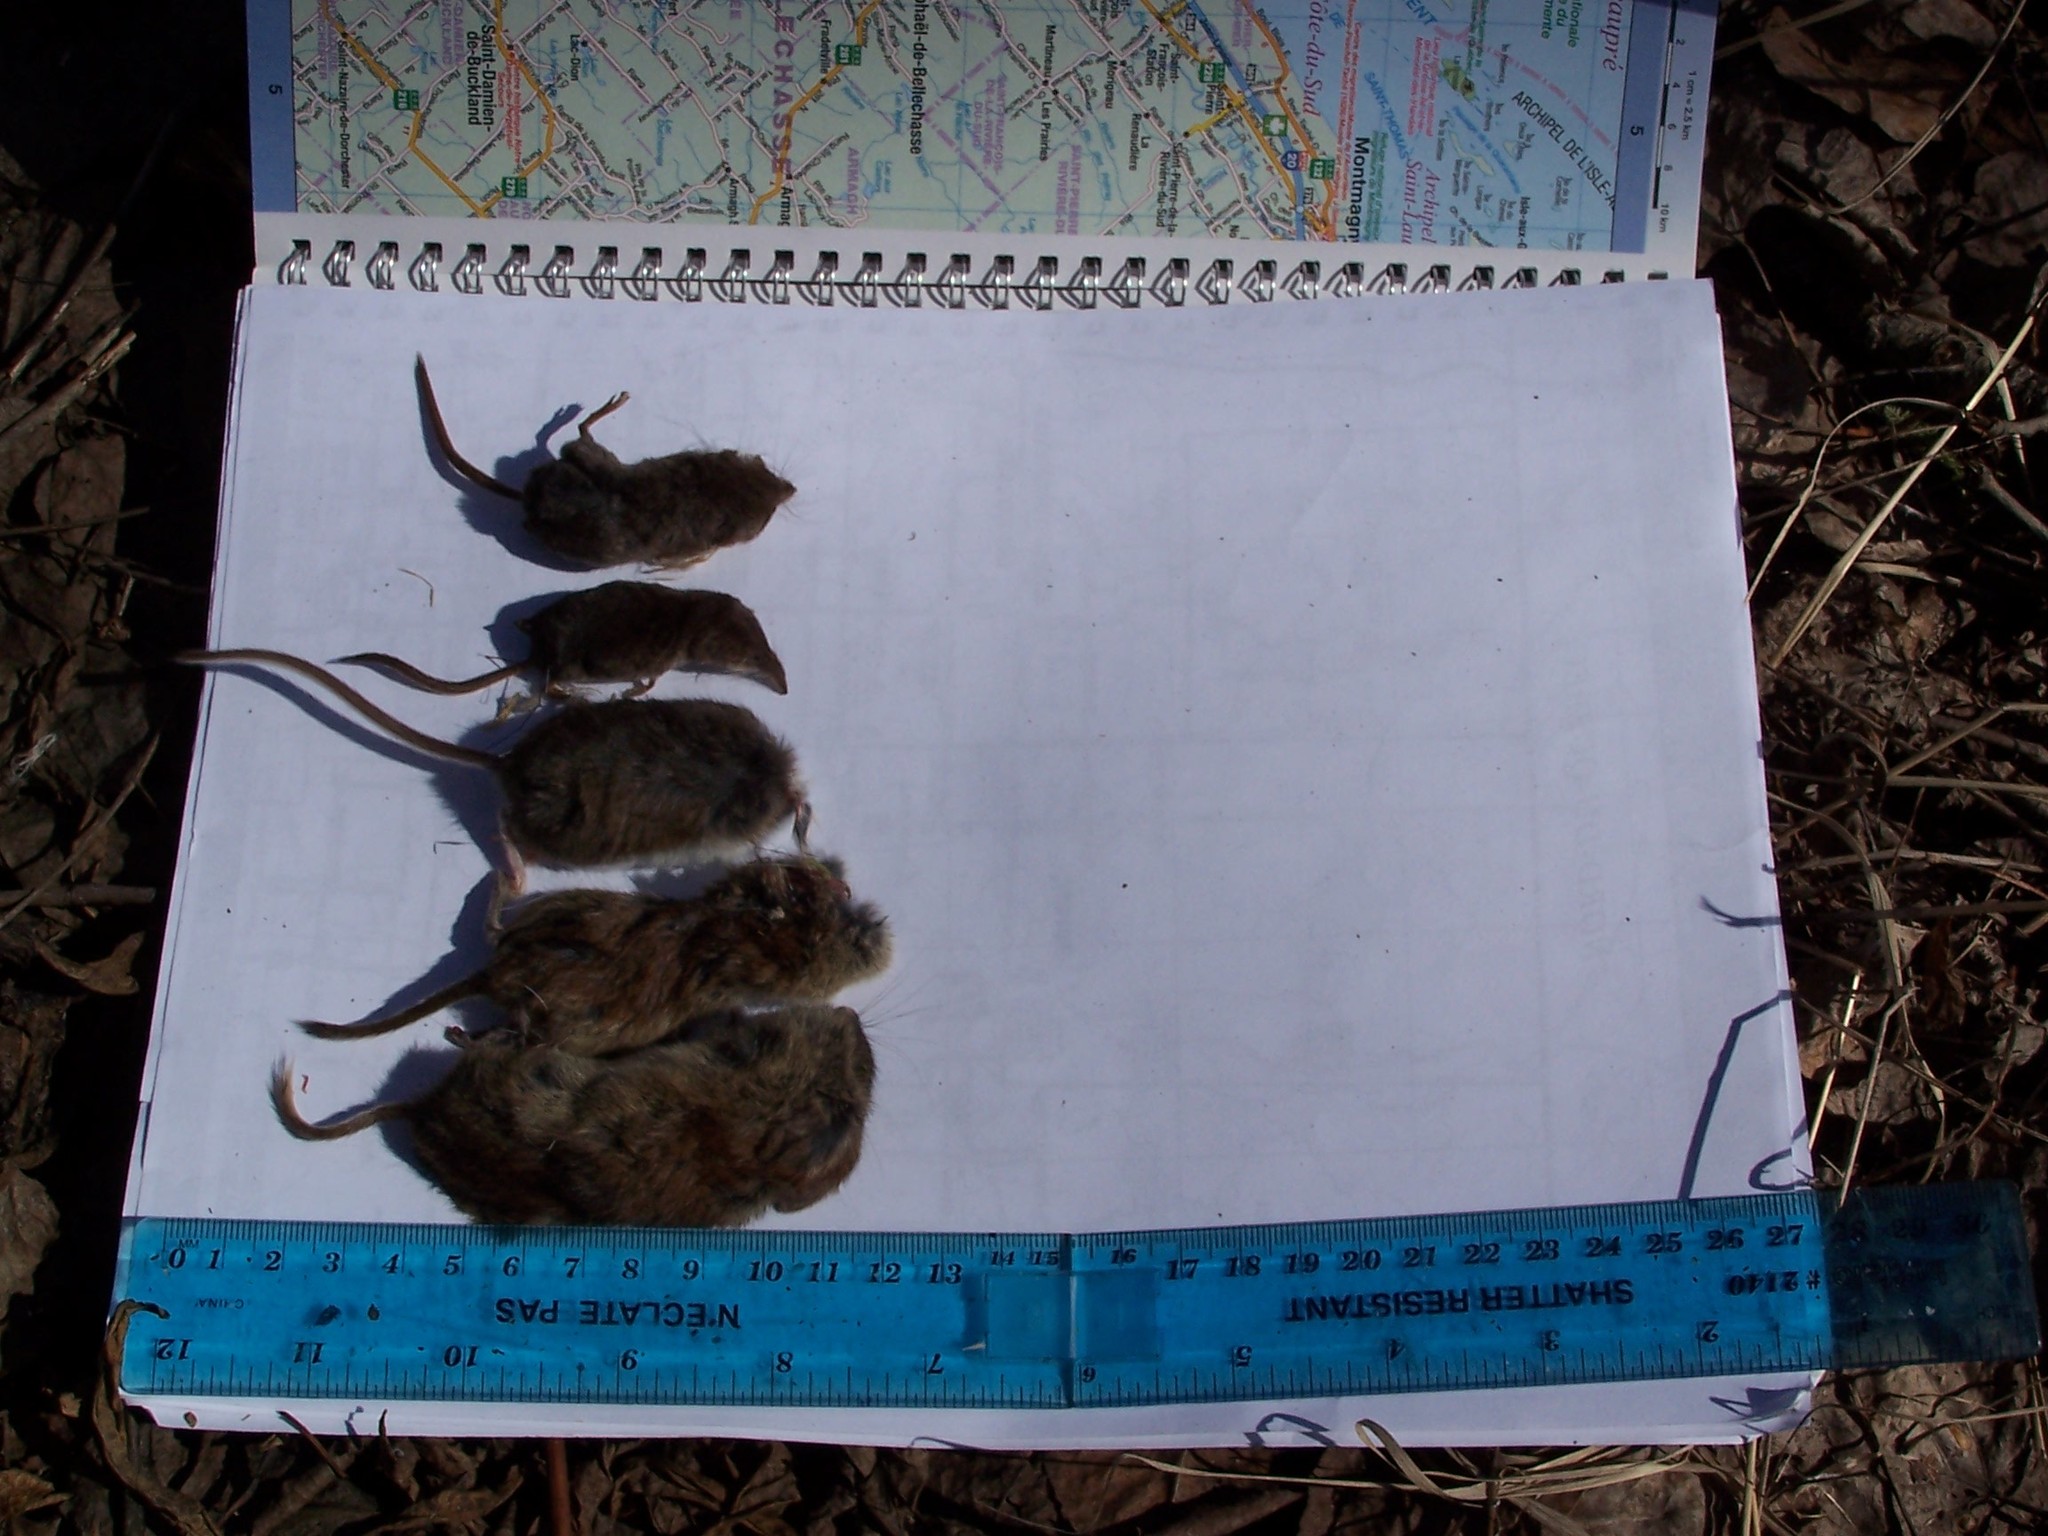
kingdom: Animalia
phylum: Chordata
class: Mammalia
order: Rodentia
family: Cricetidae
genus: Peromyscus
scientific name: Peromyscus maniculatus
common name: Deer mouse
